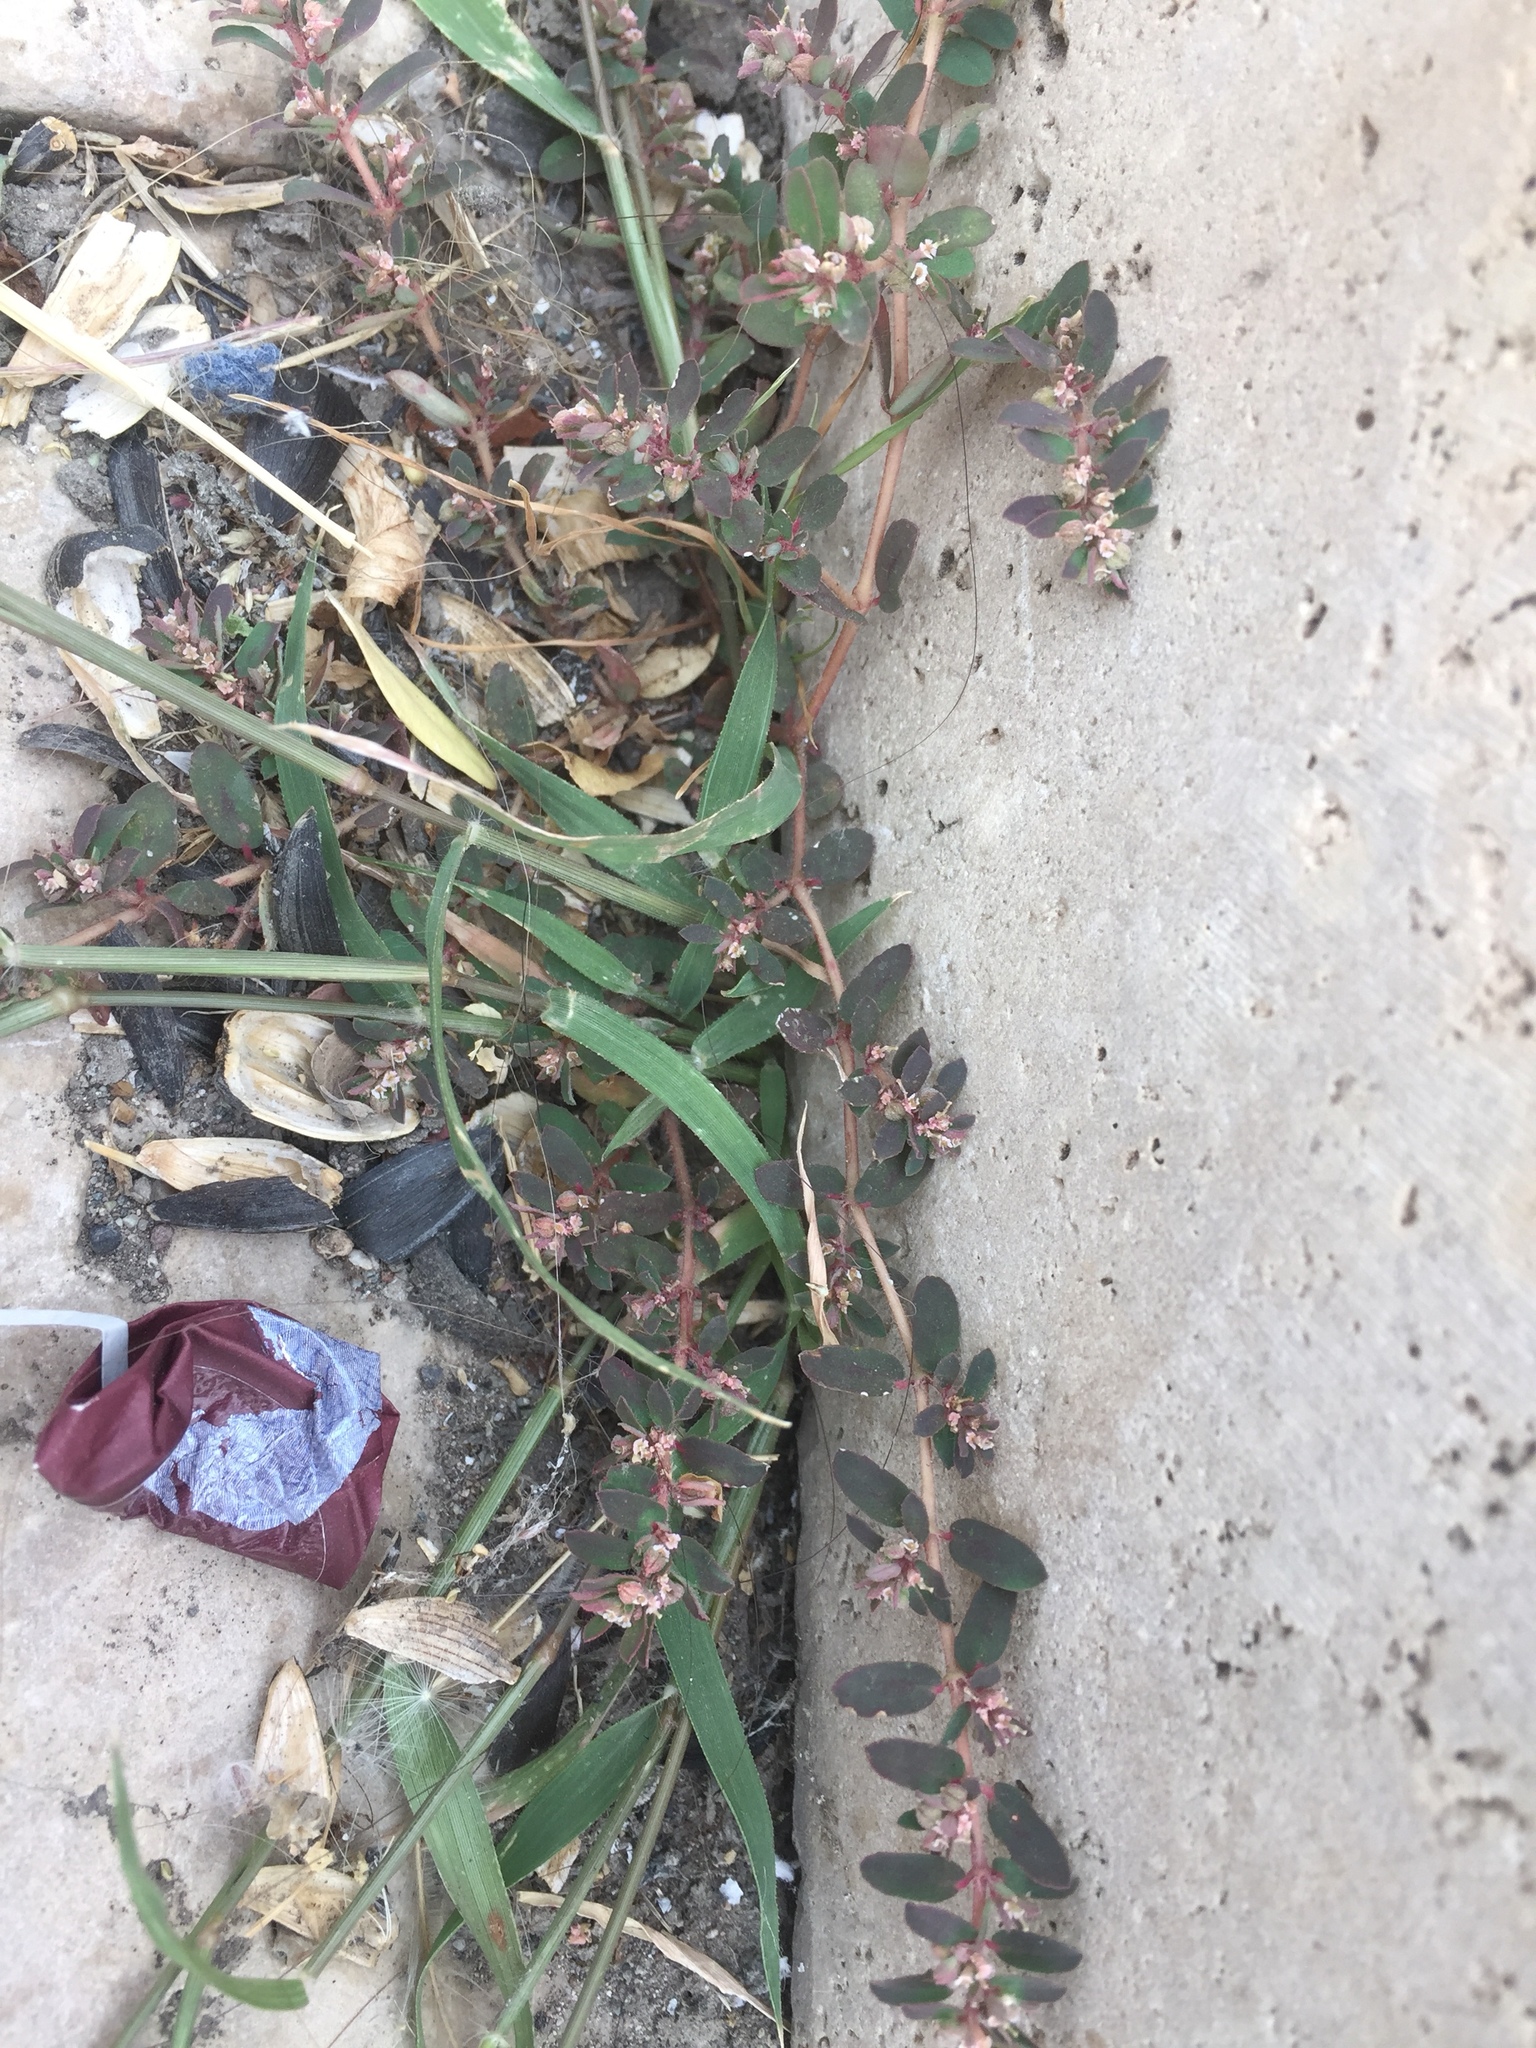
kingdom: Plantae
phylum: Tracheophyta
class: Magnoliopsida
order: Malpighiales
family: Euphorbiaceae
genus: Euphorbia
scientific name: Euphorbia maculata
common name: Spotted spurge
